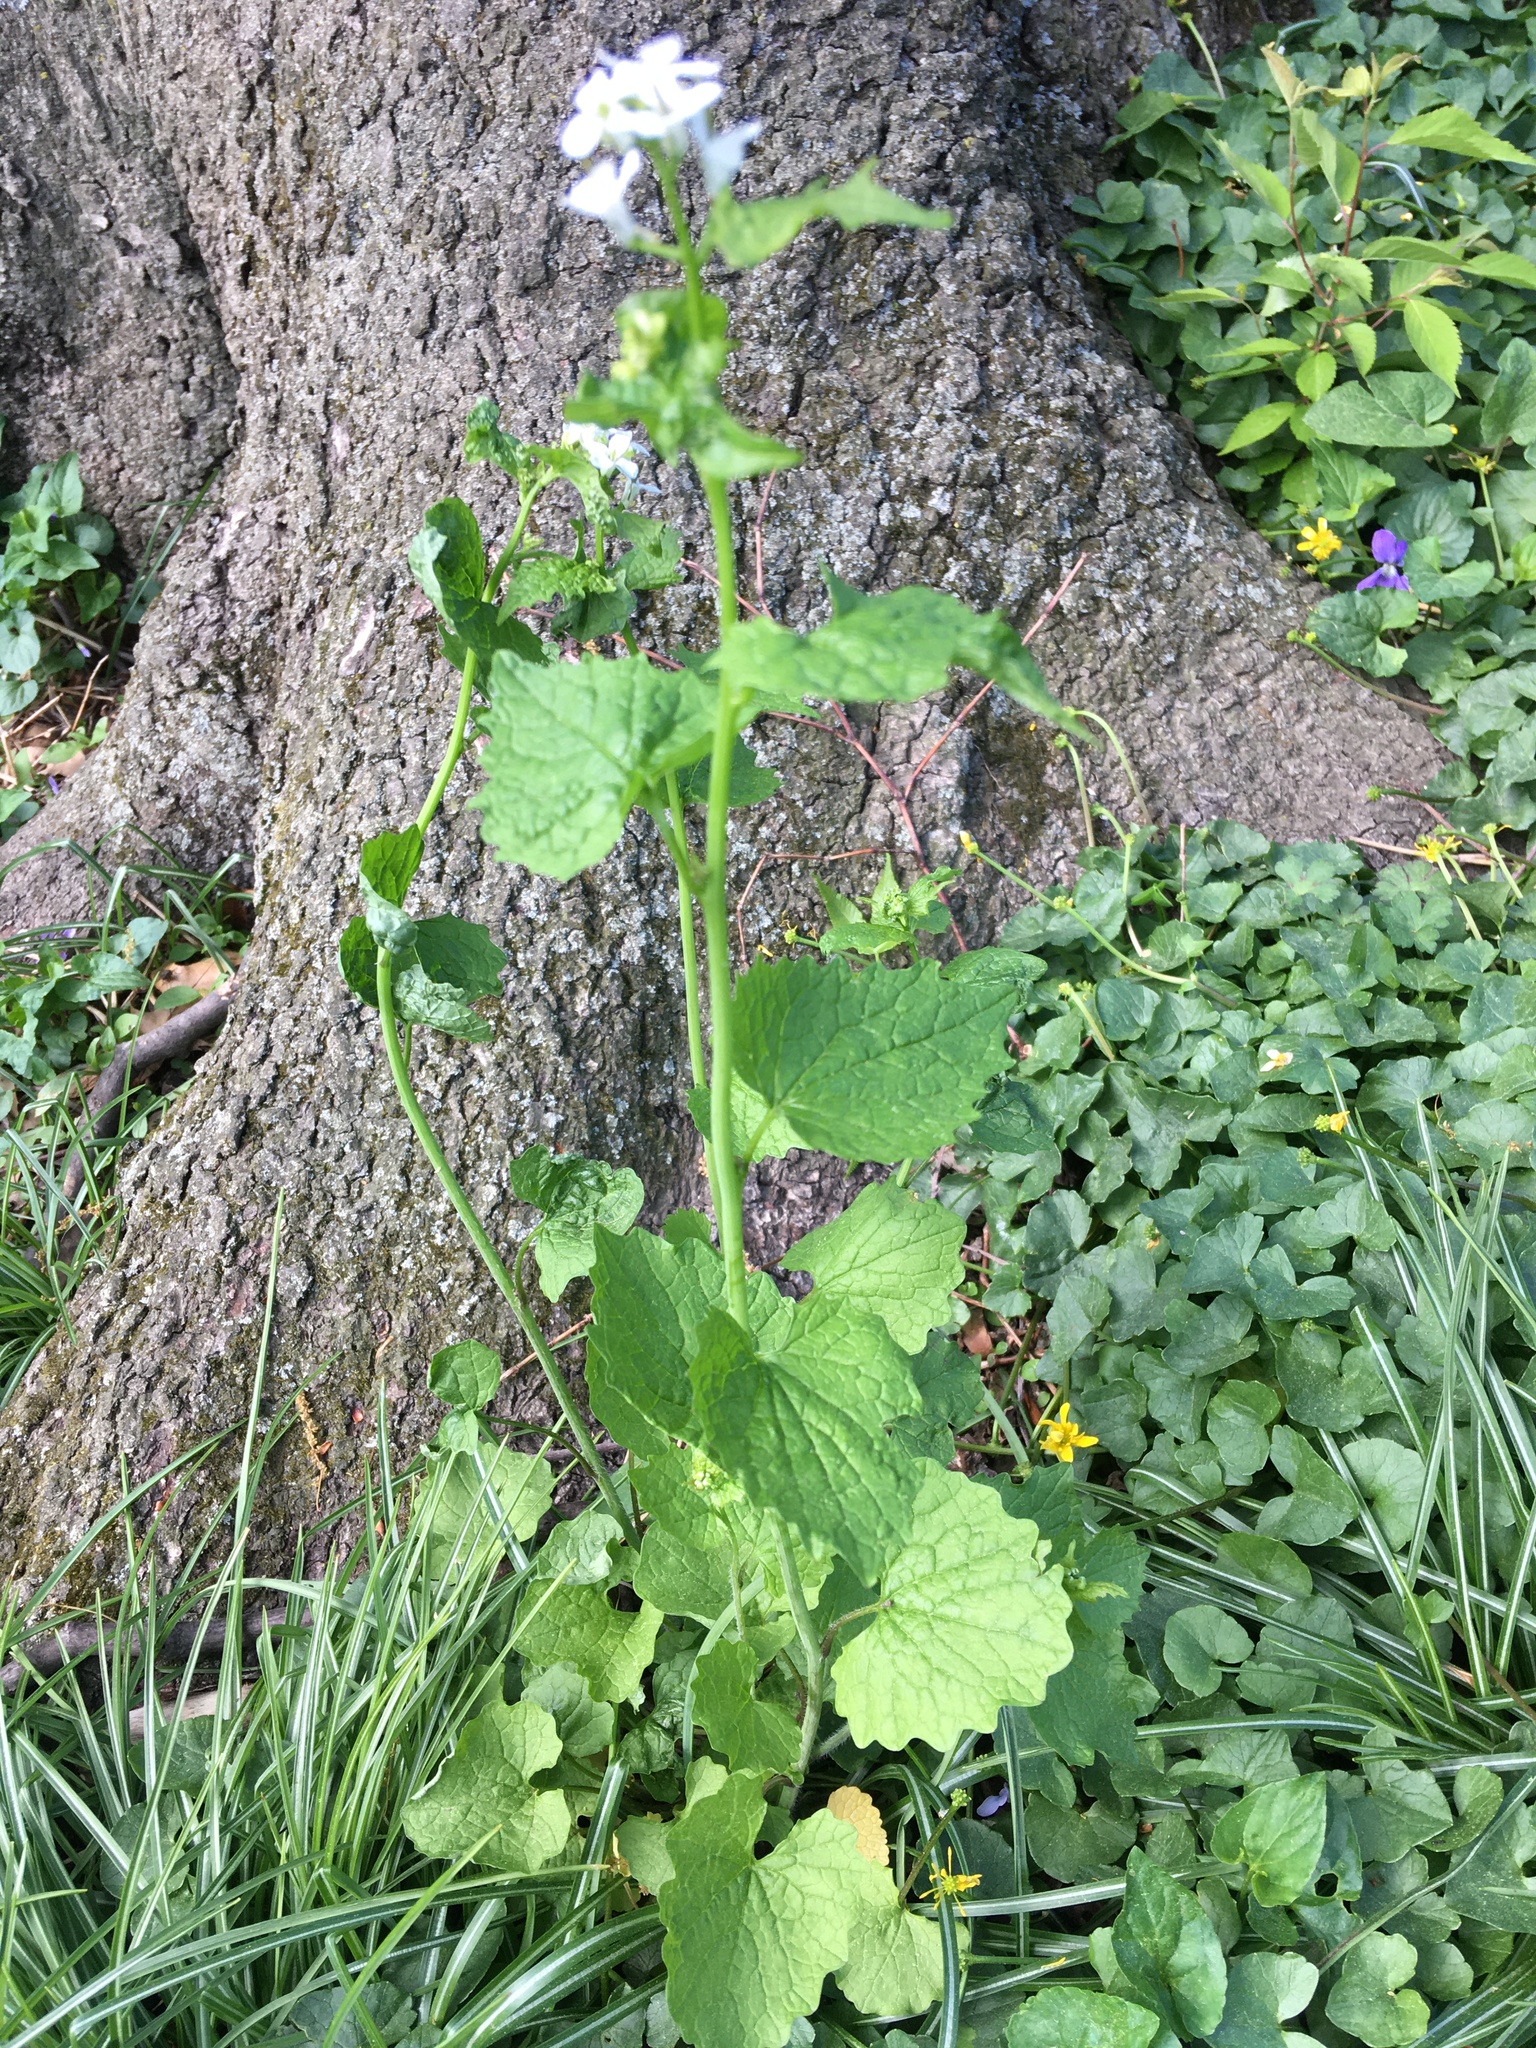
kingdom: Plantae
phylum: Tracheophyta
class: Magnoliopsida
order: Brassicales
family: Brassicaceae
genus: Alliaria
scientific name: Alliaria petiolata
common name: Garlic mustard
